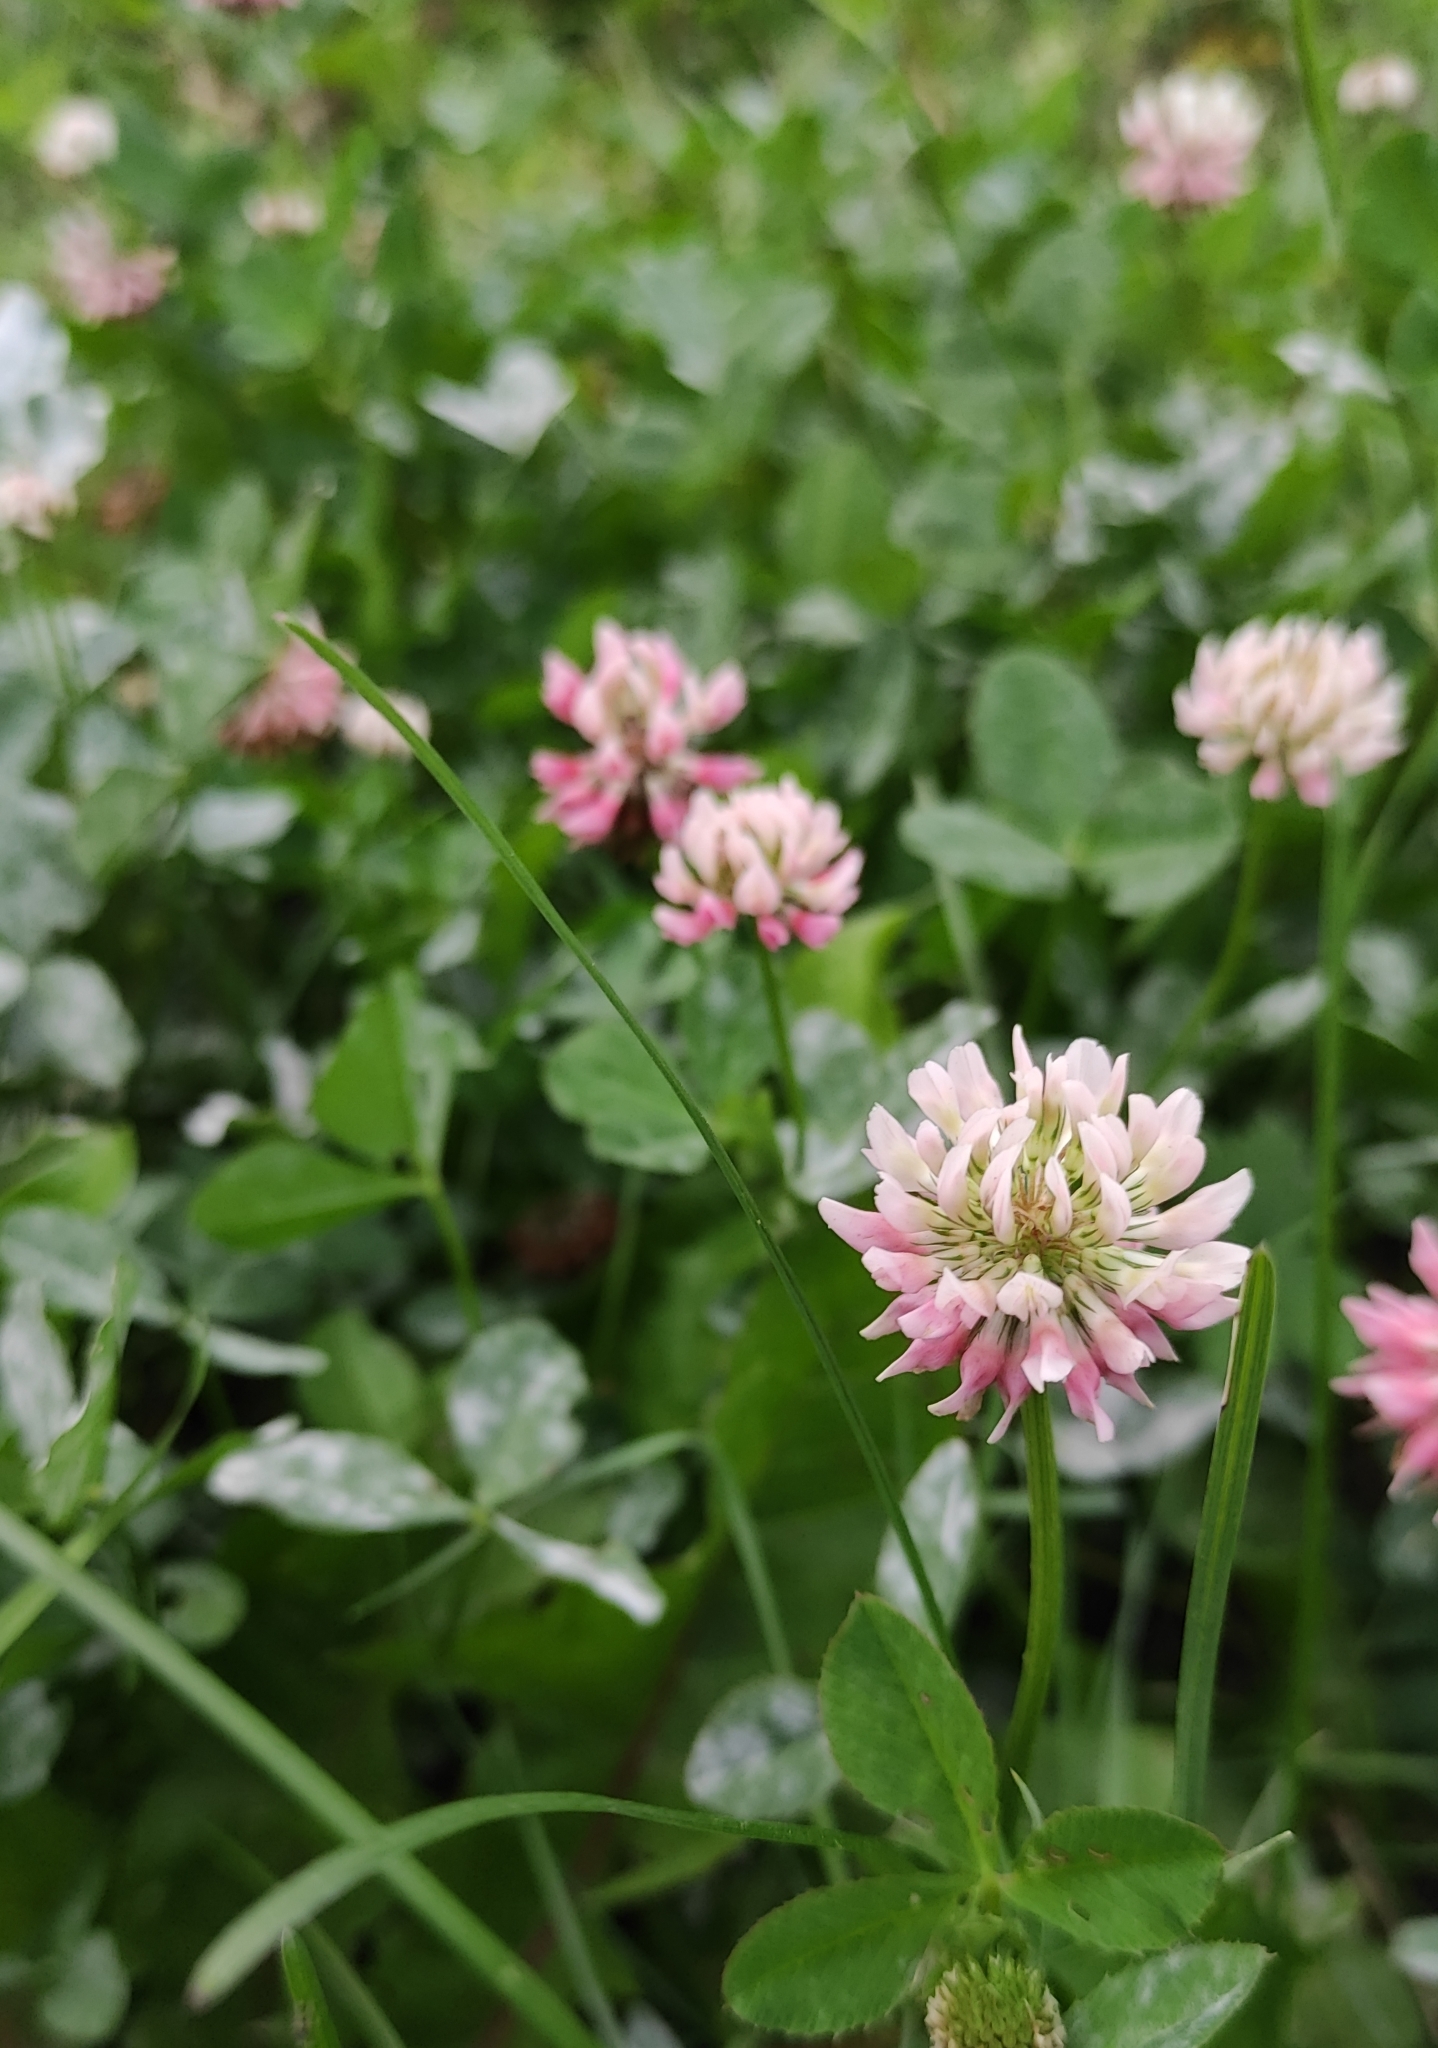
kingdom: Plantae
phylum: Tracheophyta
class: Magnoliopsida
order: Fabales
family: Fabaceae
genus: Trifolium
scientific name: Trifolium hybridum
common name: Alsike clover
